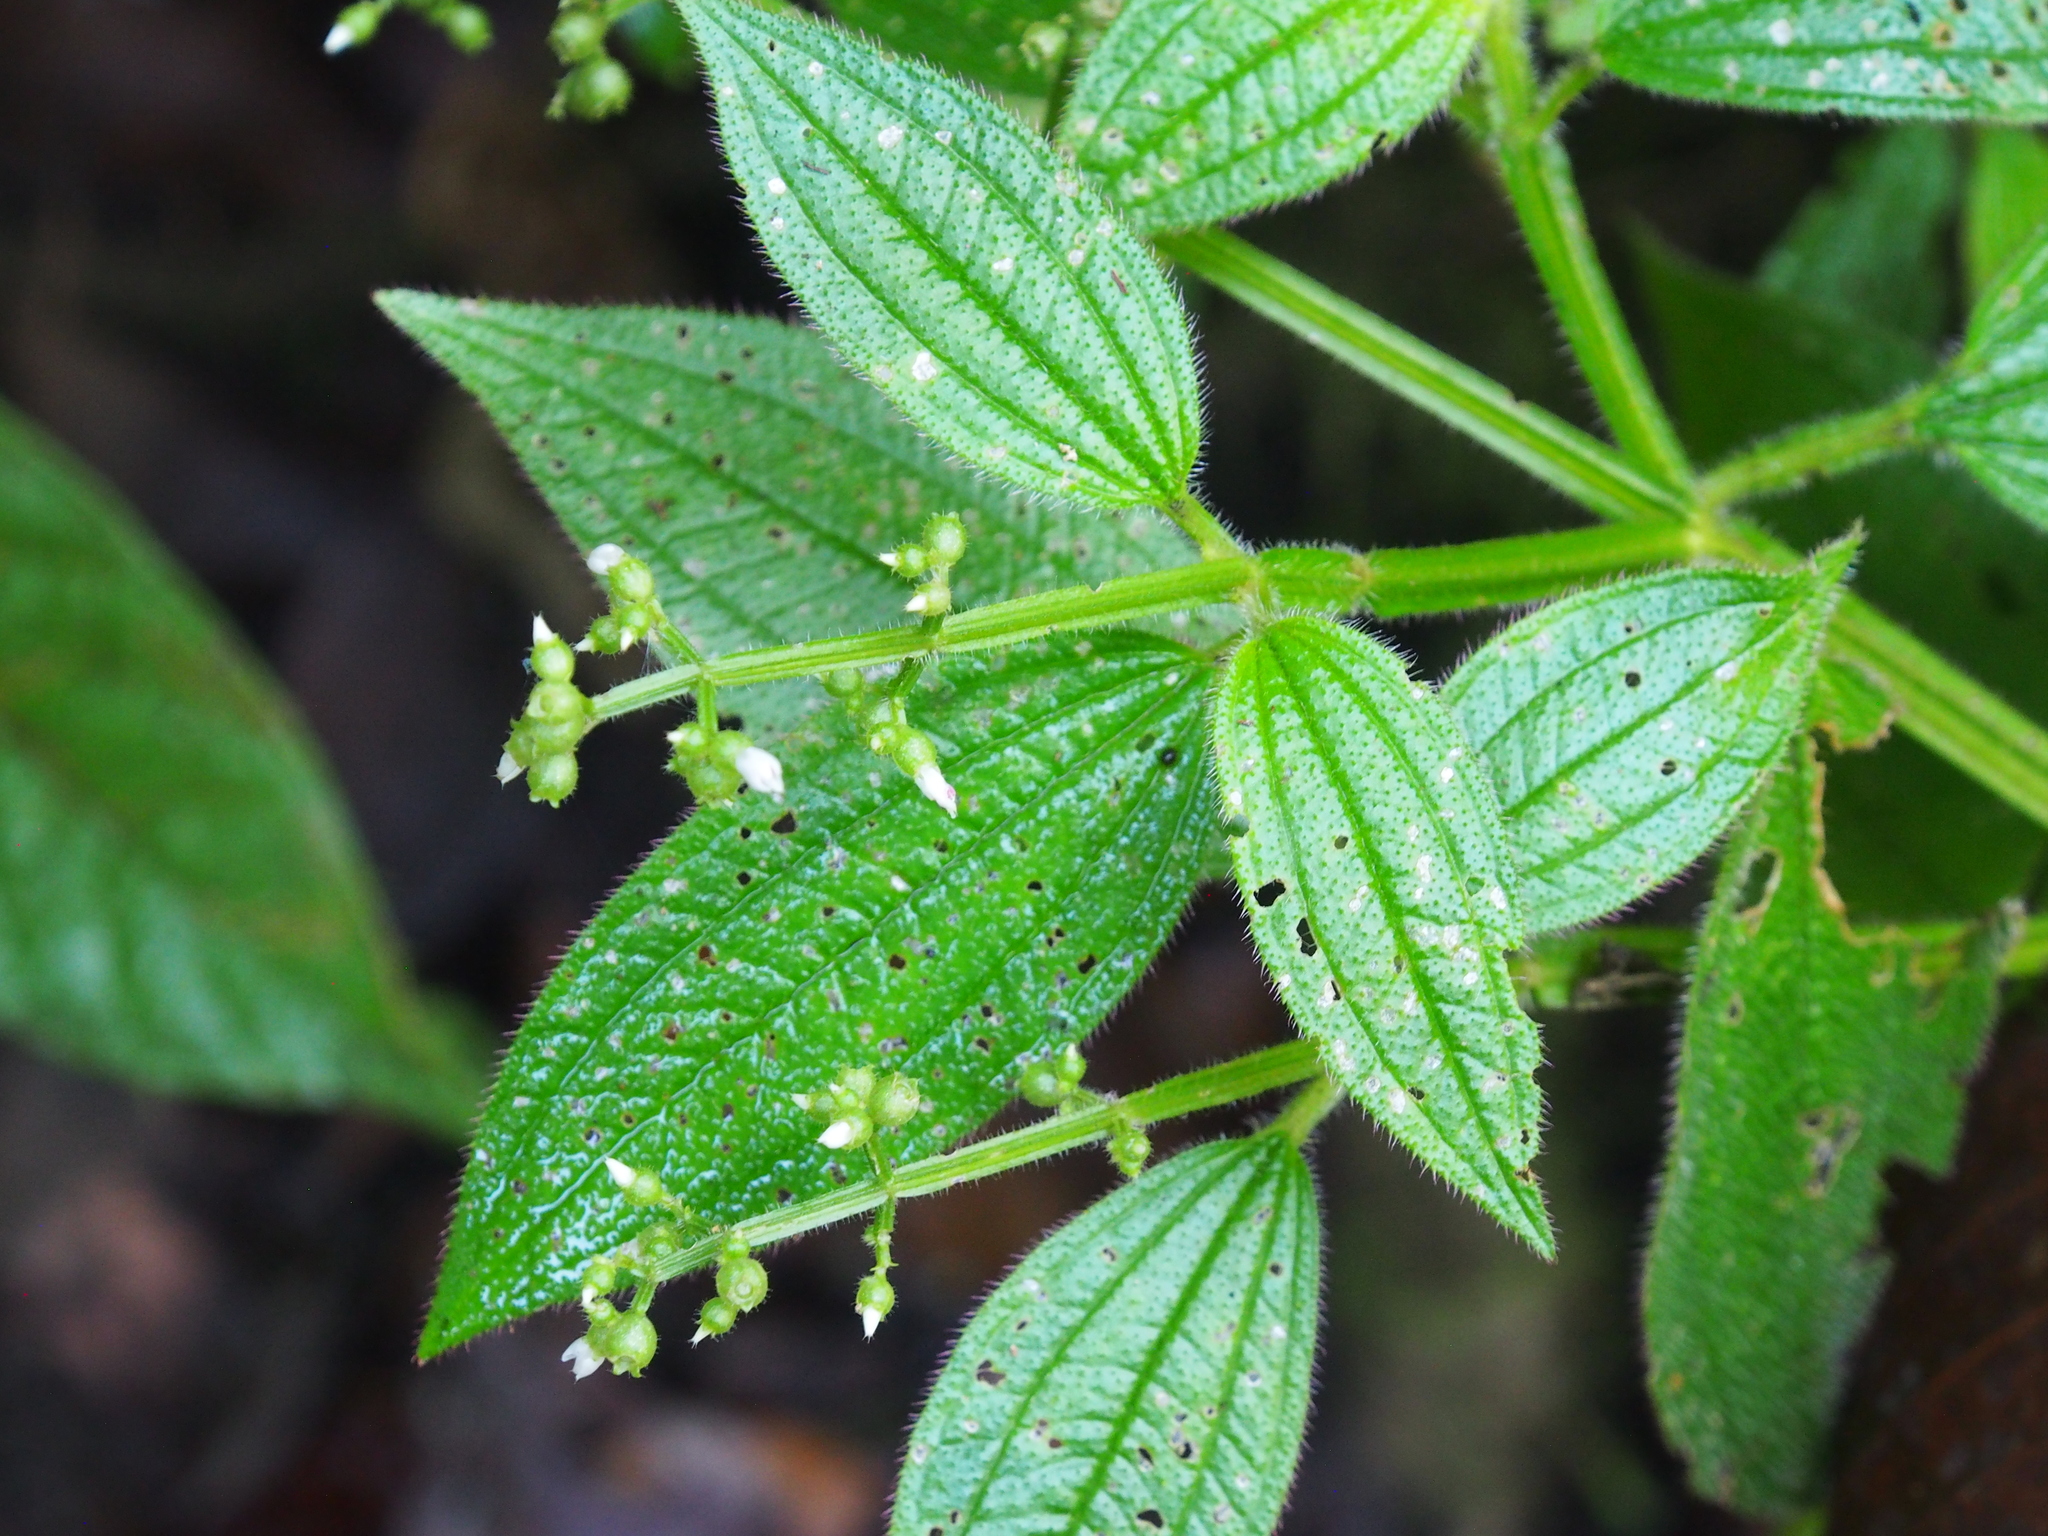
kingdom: Plantae
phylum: Tracheophyta
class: Magnoliopsida
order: Myrtales
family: Melastomataceae
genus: Aciotis
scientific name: Aciotis rubricaulis
